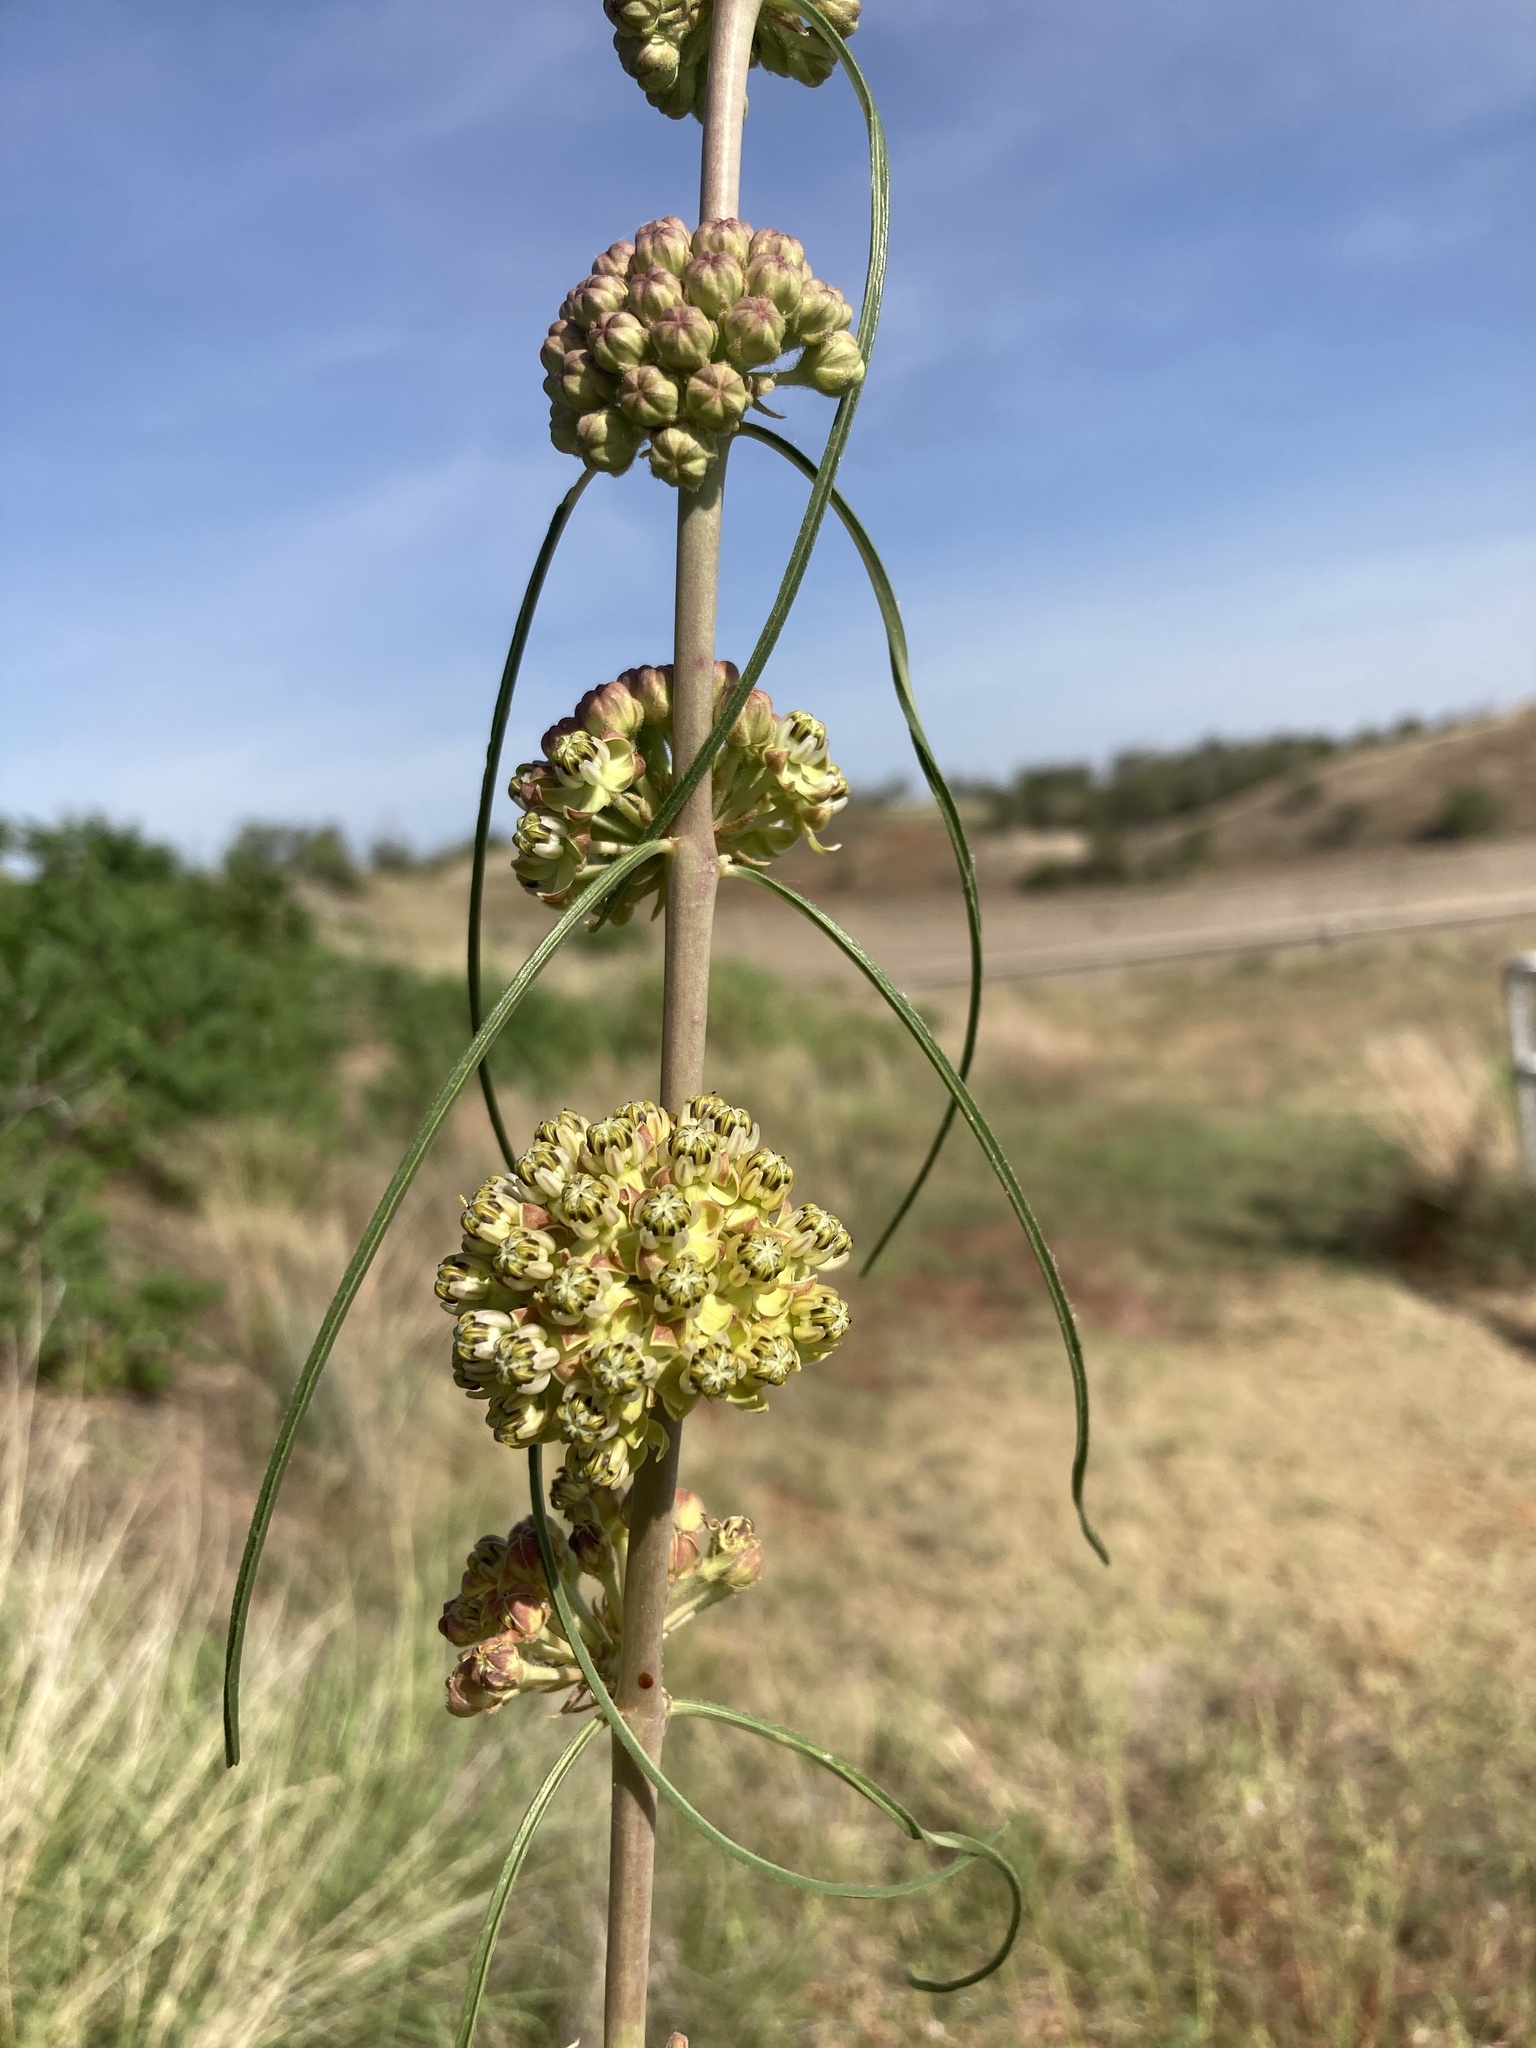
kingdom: Plantae
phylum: Tracheophyta
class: Magnoliopsida
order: Gentianales
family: Apocynaceae
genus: Asclepias
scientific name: Asclepias engelmanniana
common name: Engelmann's milkweed
